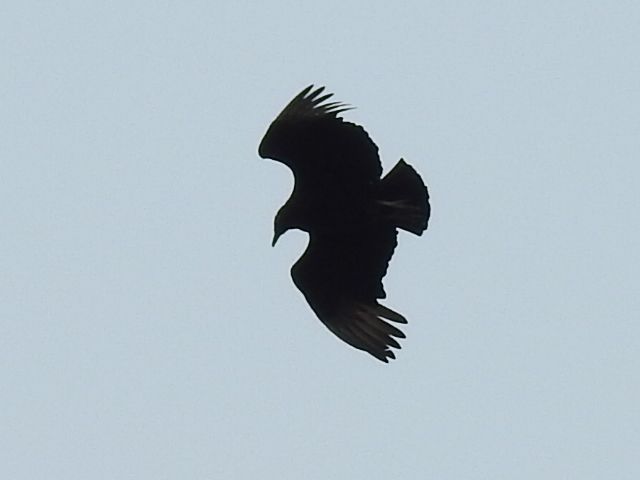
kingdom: Animalia
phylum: Chordata
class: Aves
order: Accipitriformes
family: Cathartidae
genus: Coragyps
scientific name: Coragyps atratus
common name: Black vulture
